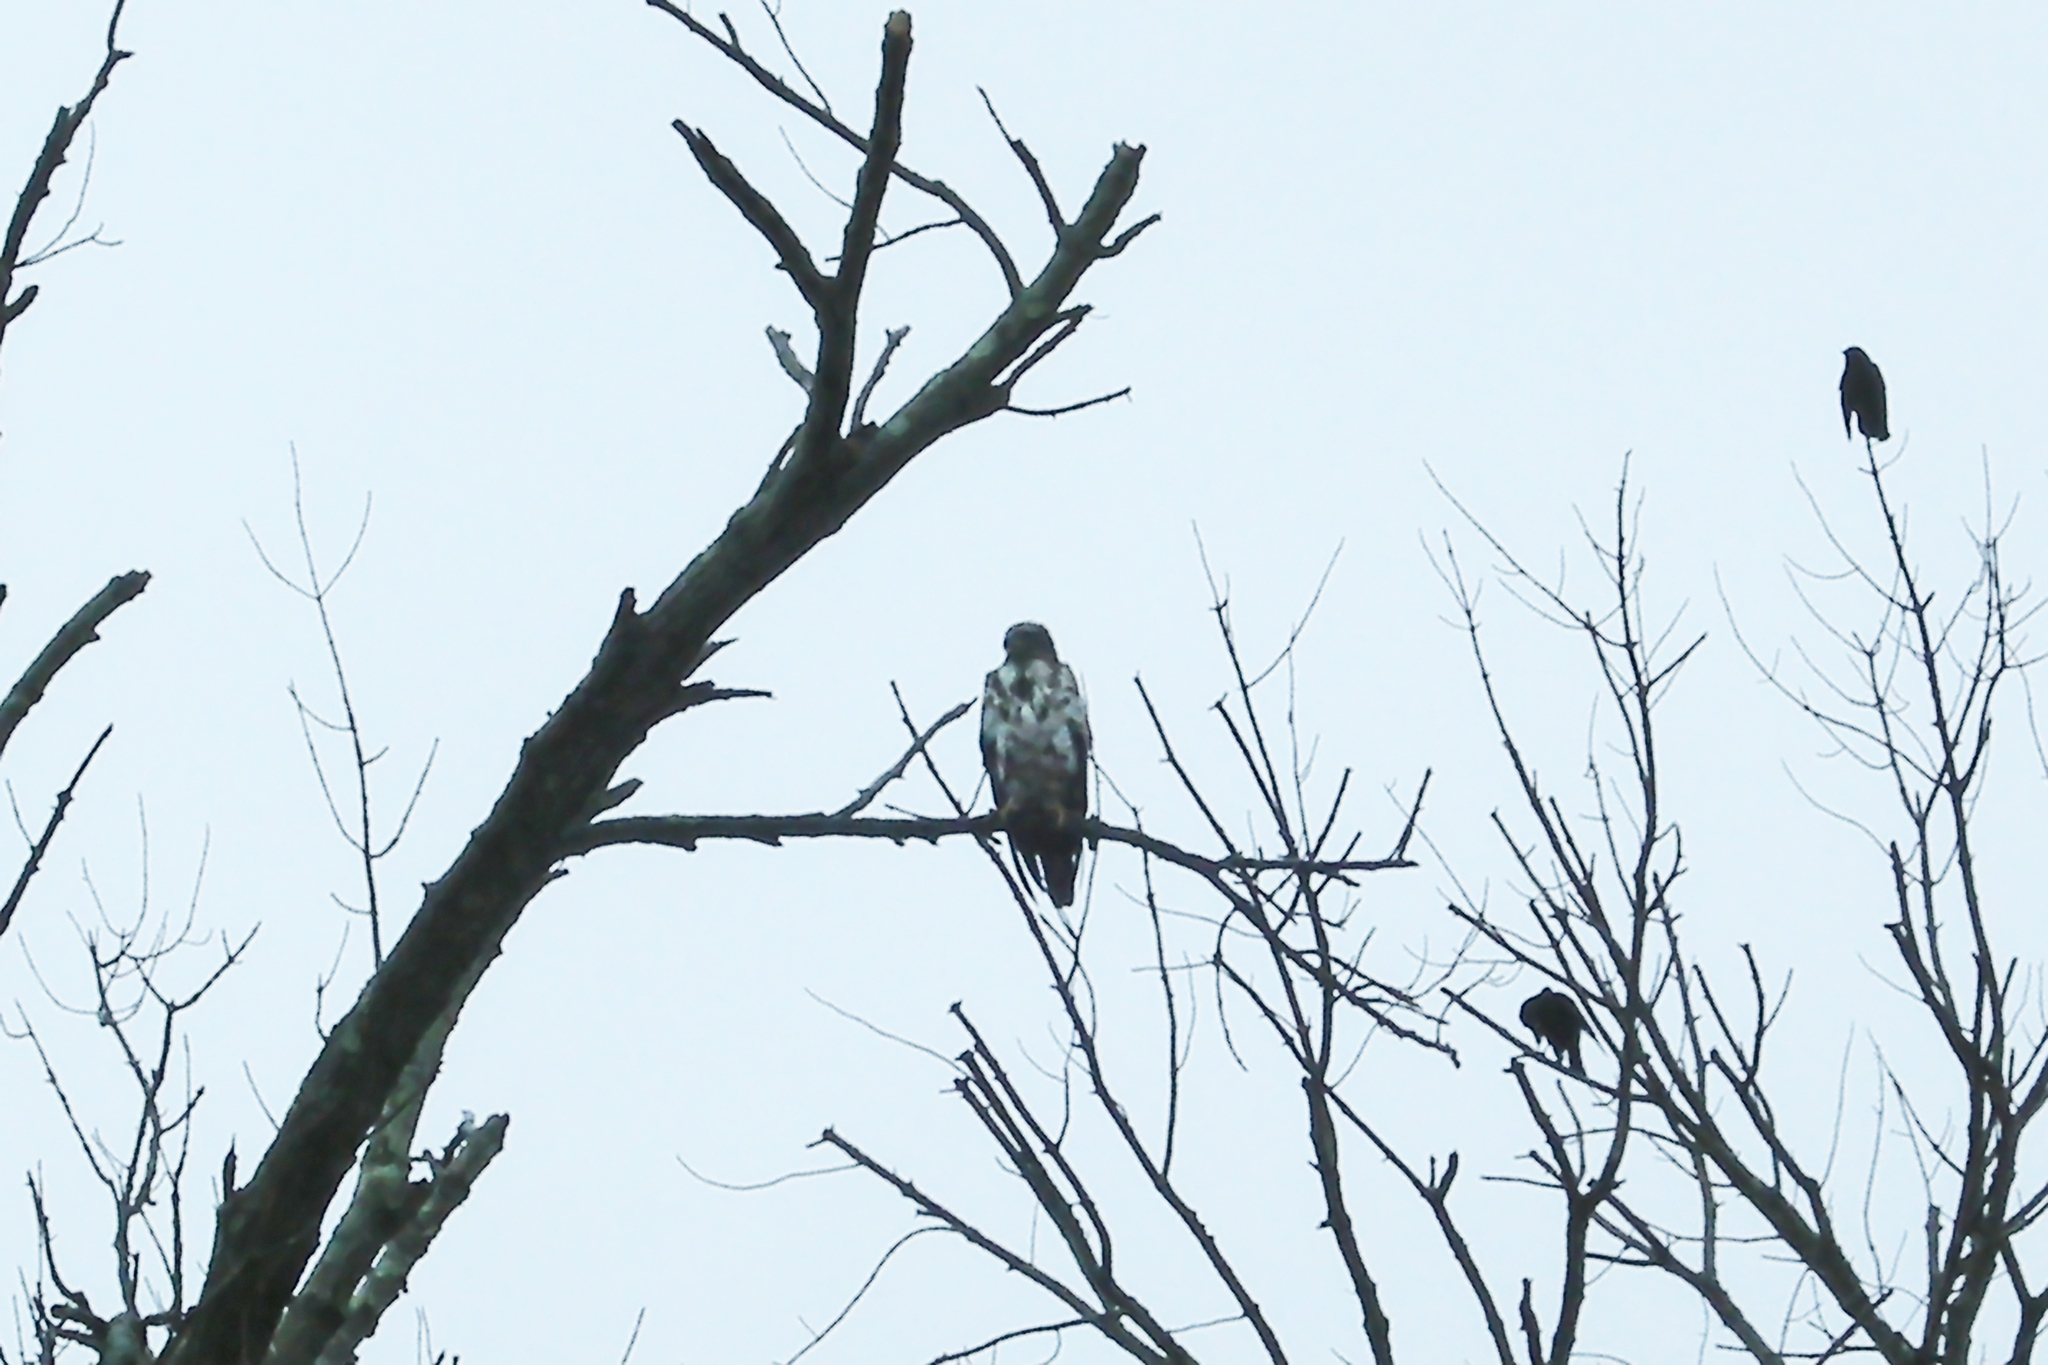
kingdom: Animalia
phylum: Chordata
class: Aves
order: Accipitriformes
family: Accipitridae
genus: Haliaeetus
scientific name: Haliaeetus leucocephalus
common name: Bald eagle
